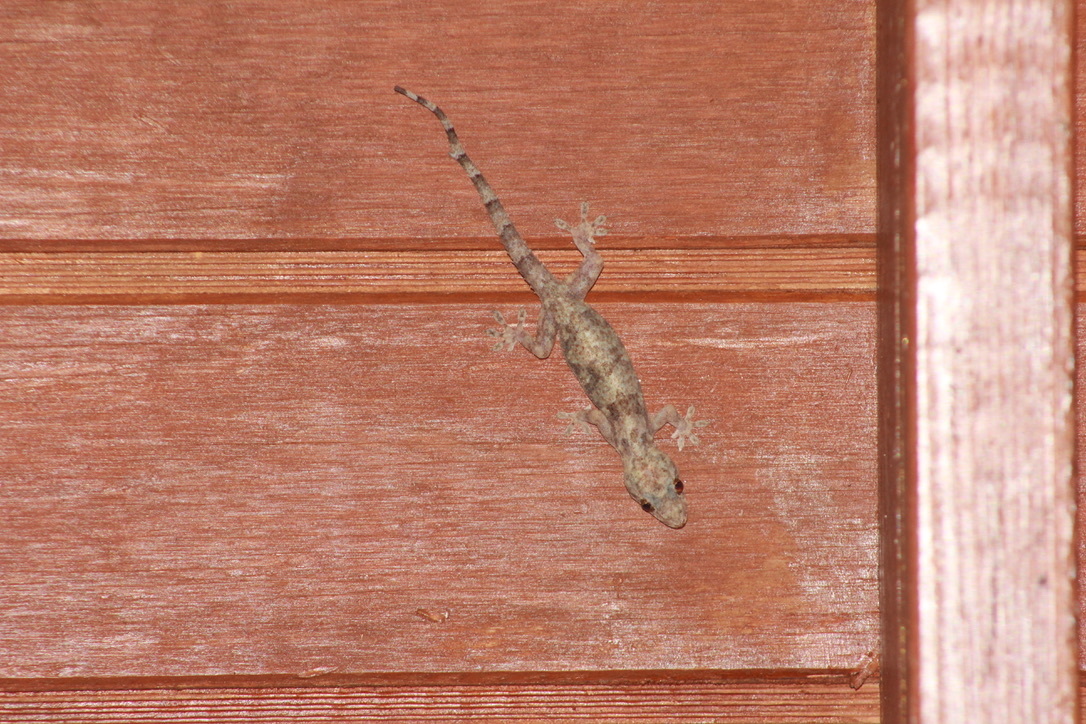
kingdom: Animalia
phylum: Chordata
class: Squamata
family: Gekkonidae
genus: Hemidactylus
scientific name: Hemidactylus mabouia
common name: House gecko
